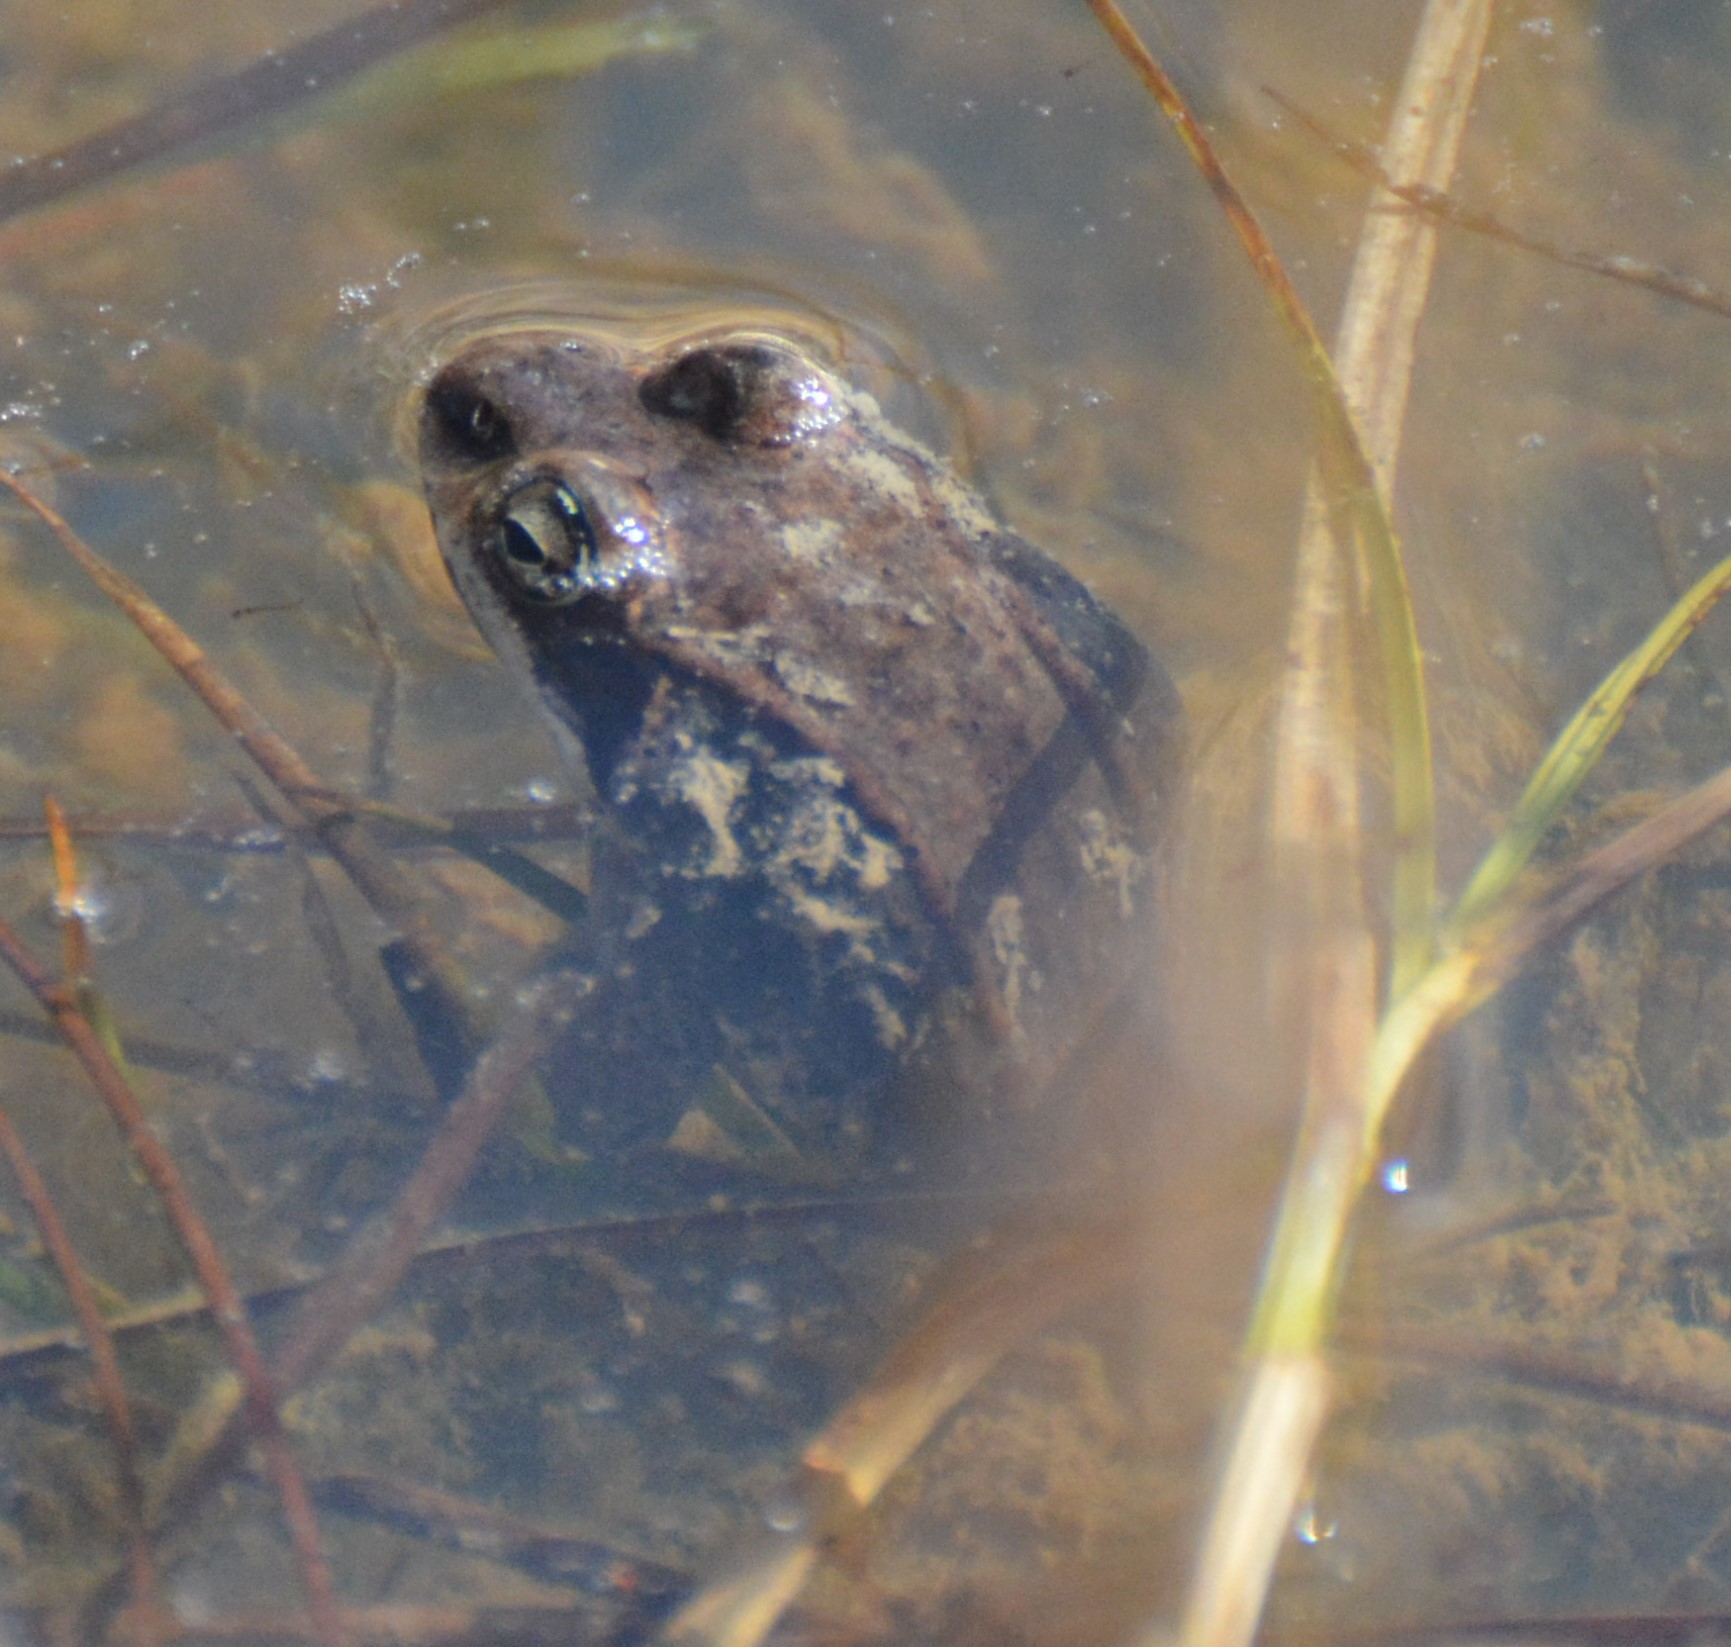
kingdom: Animalia
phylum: Chordata
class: Amphibia
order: Anura
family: Ranidae
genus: Lithobates
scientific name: Lithobates sylvaticus
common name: Wood frog
